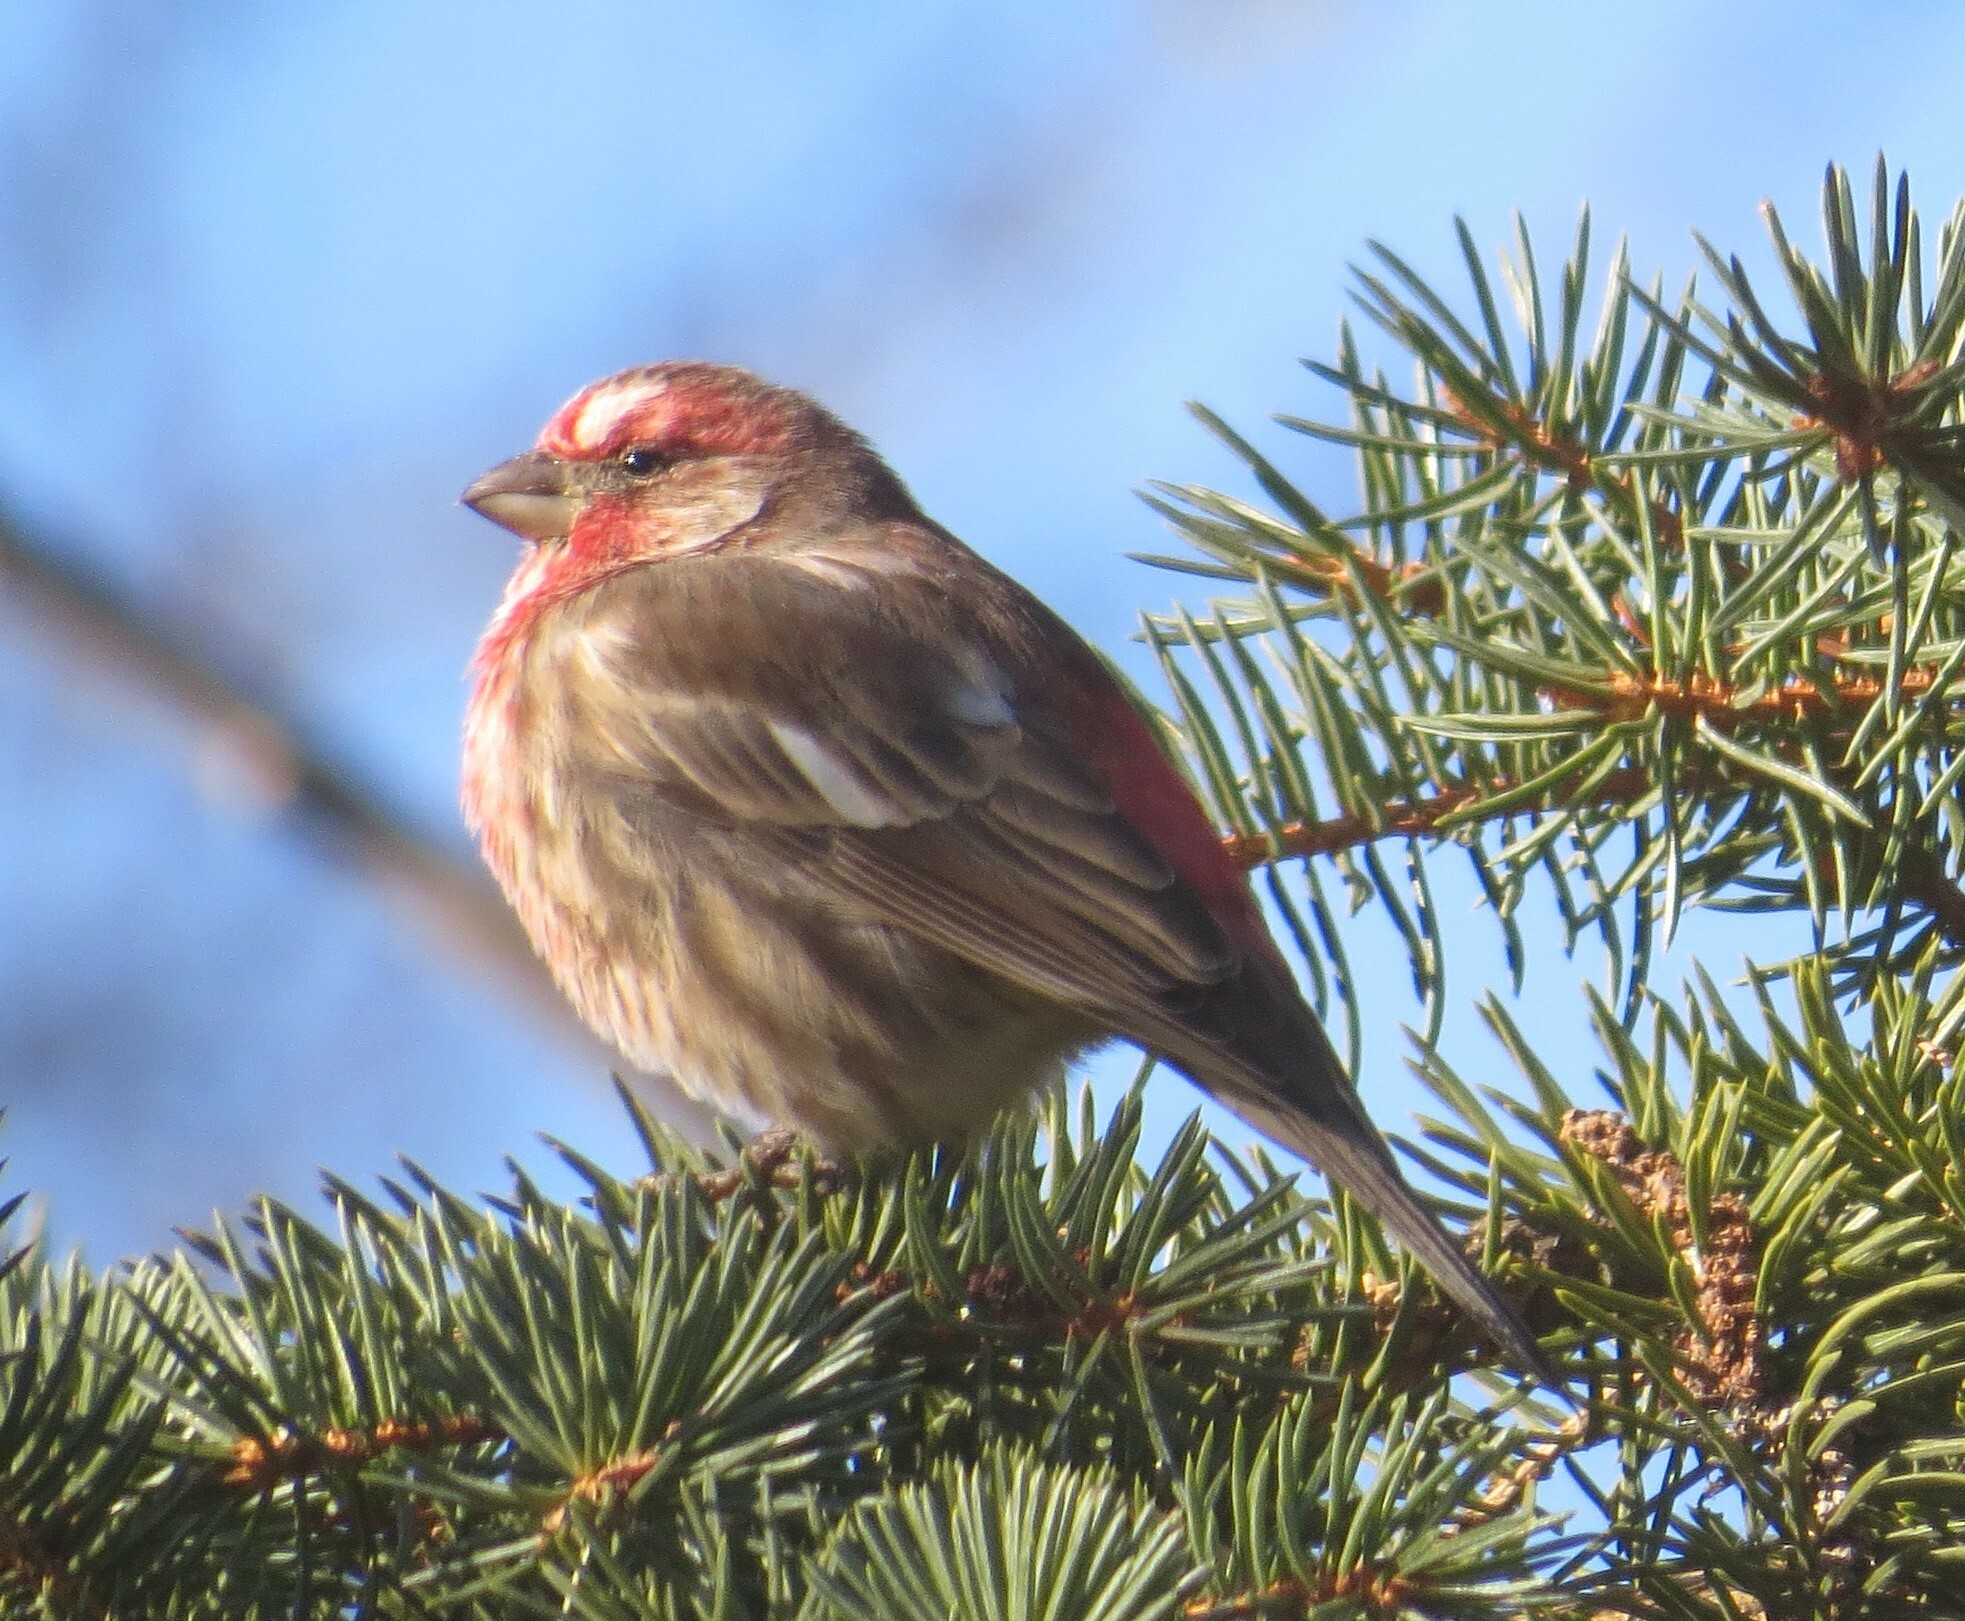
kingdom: Animalia
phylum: Chordata
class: Aves
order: Passeriformes
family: Fringillidae
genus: Haemorhous
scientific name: Haemorhous mexicanus
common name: House finch
